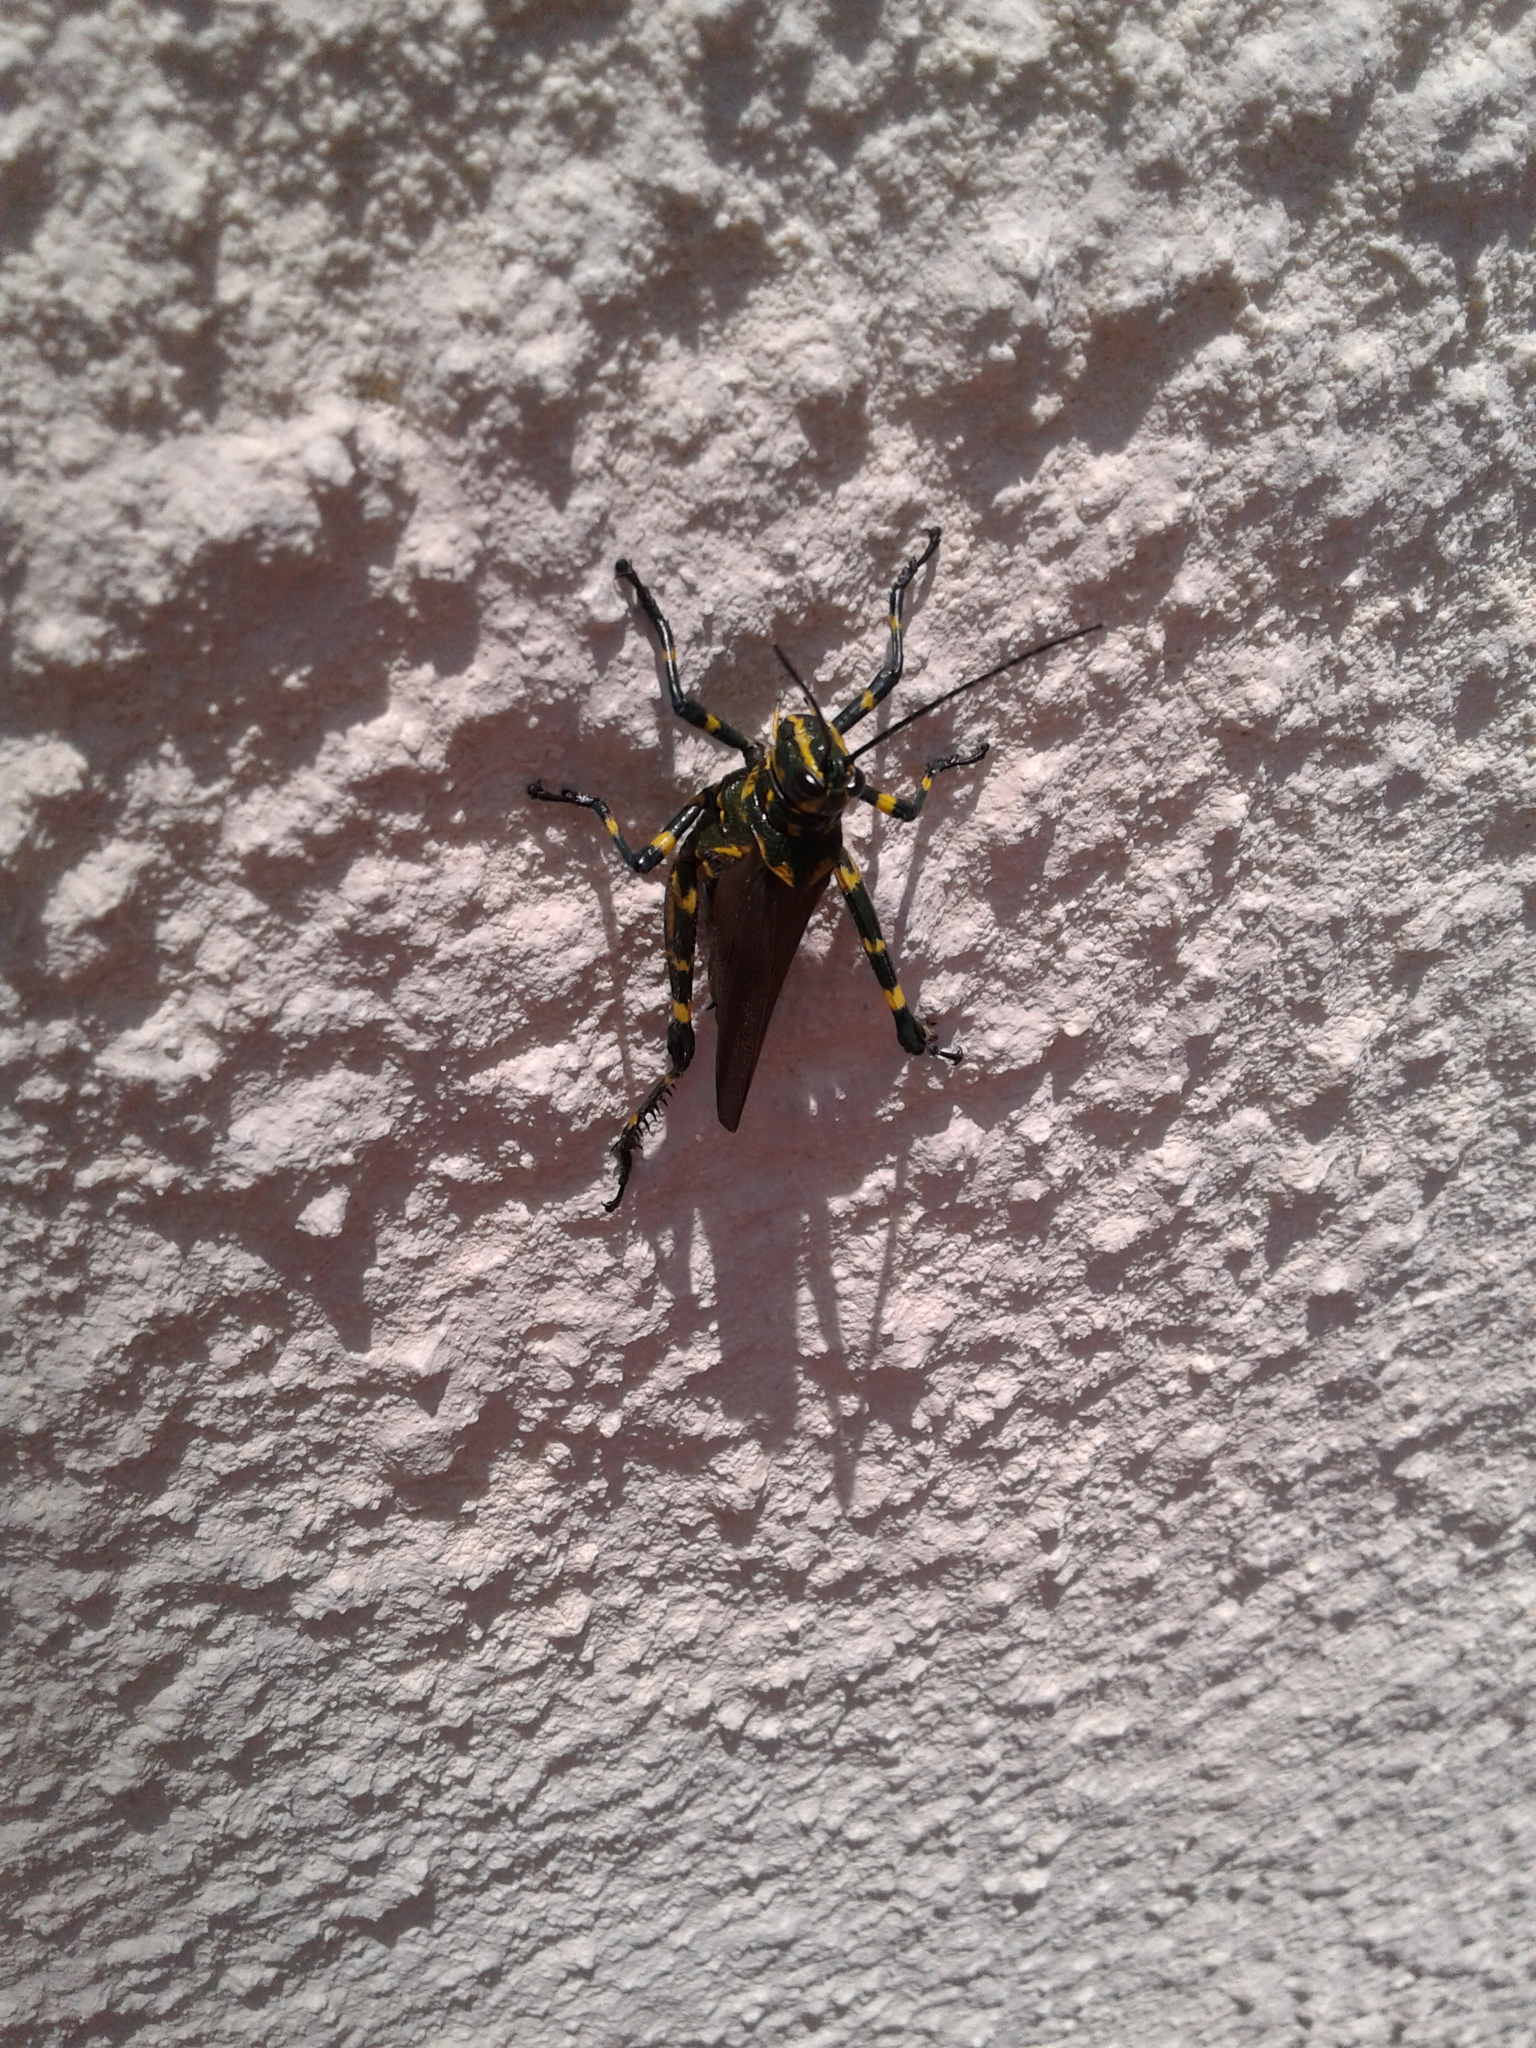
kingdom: Animalia
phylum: Arthropoda
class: Insecta
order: Orthoptera
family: Romaleidae
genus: Chromacris
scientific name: Chromacris speciosa
